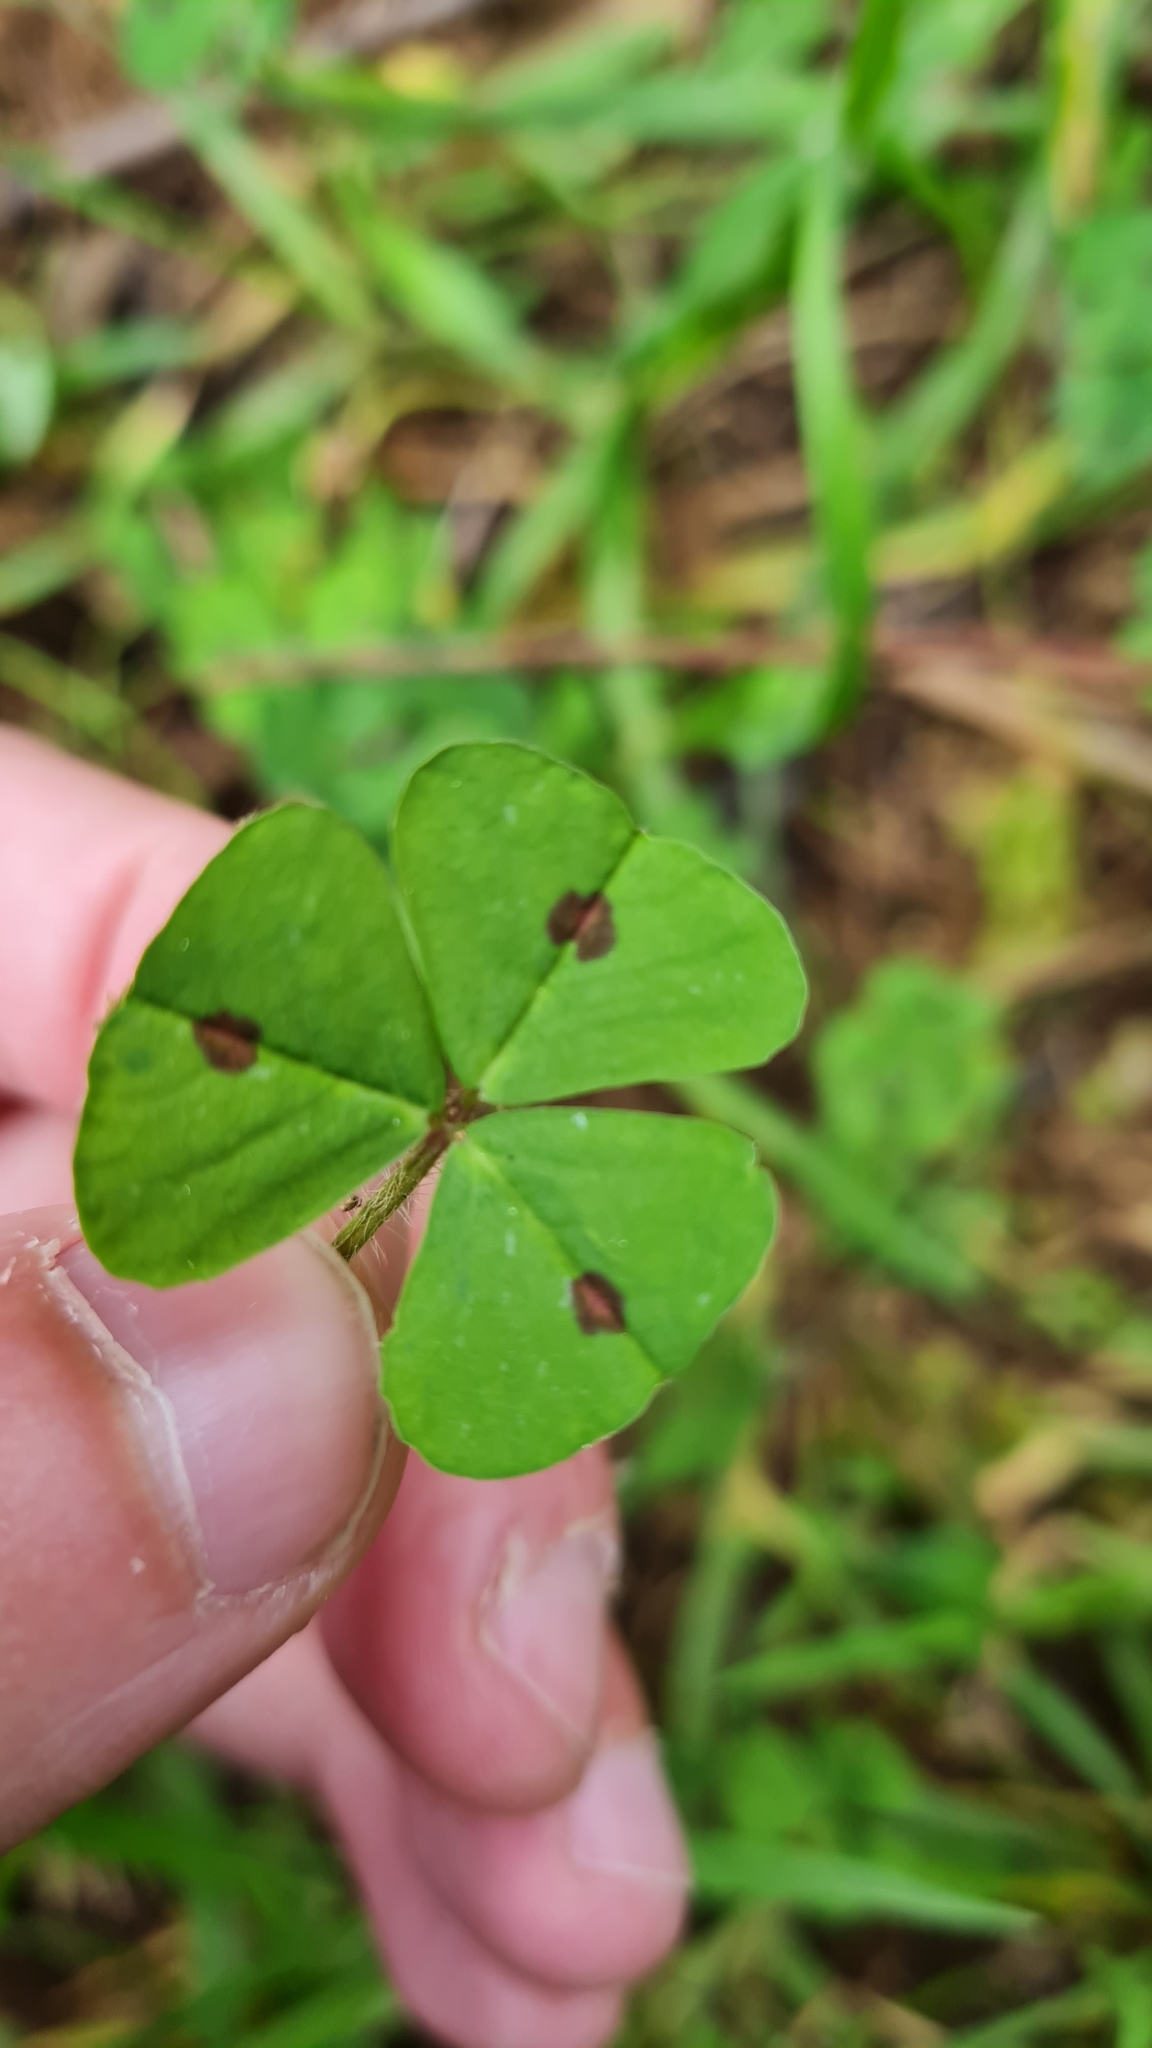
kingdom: Plantae
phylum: Tracheophyta
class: Magnoliopsida
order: Fabales
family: Fabaceae
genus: Medicago
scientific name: Medicago arabica
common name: Spotted medick
